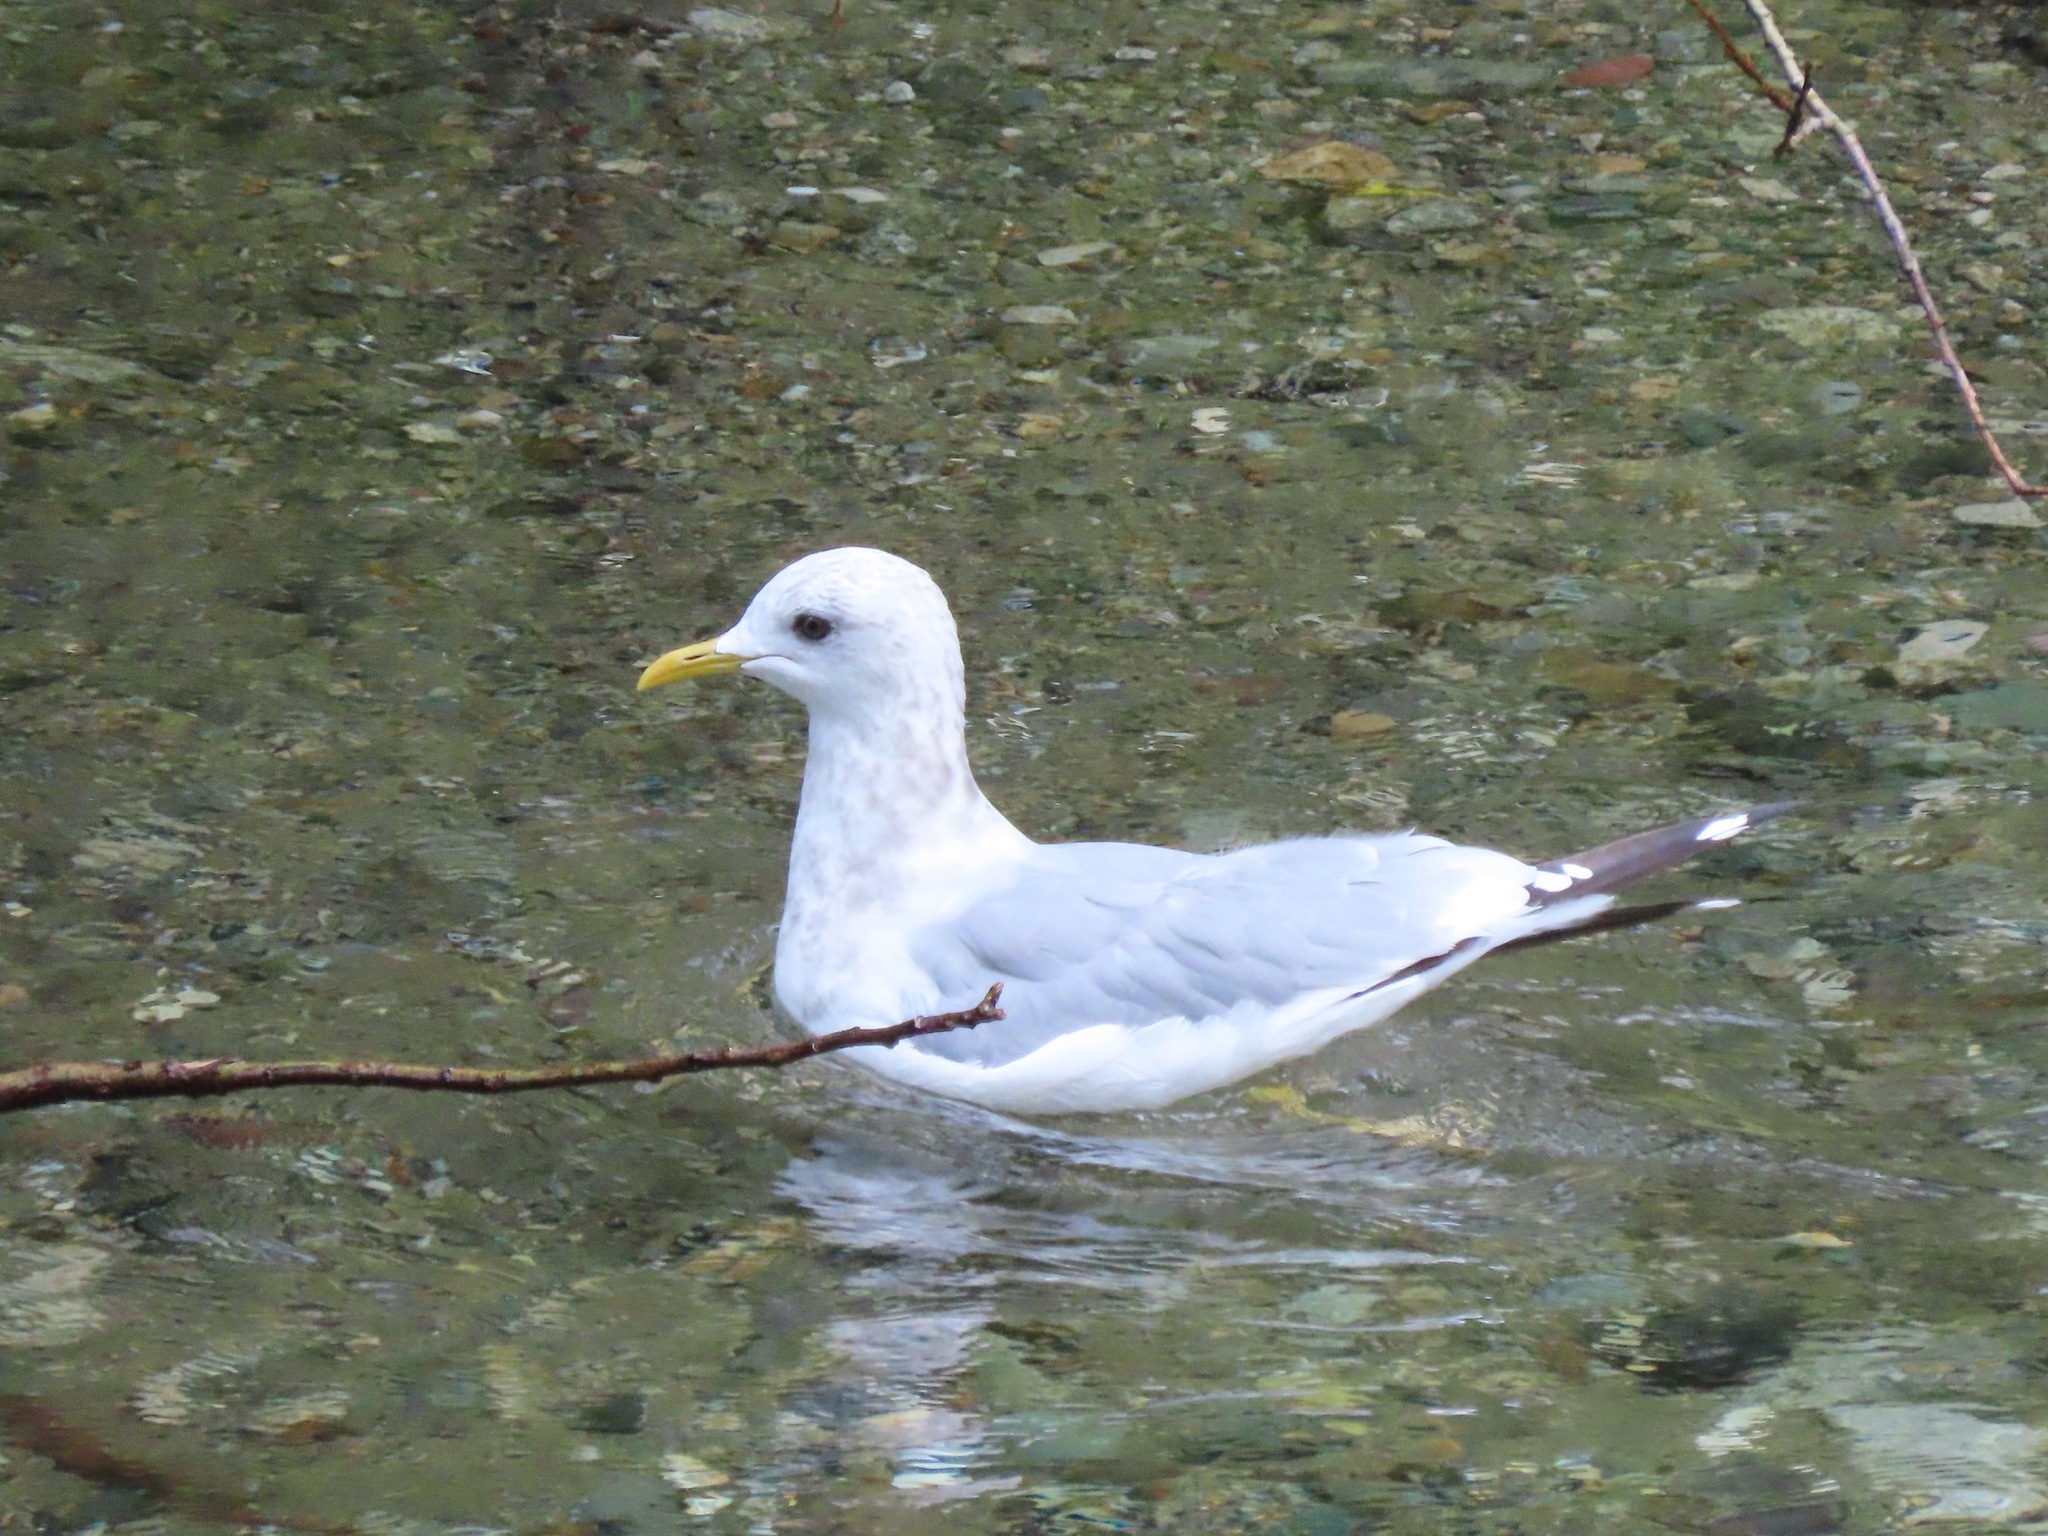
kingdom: Animalia
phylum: Chordata
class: Aves
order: Charadriiformes
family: Laridae
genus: Larus
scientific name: Larus brachyrhynchus
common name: Short-billed gull
